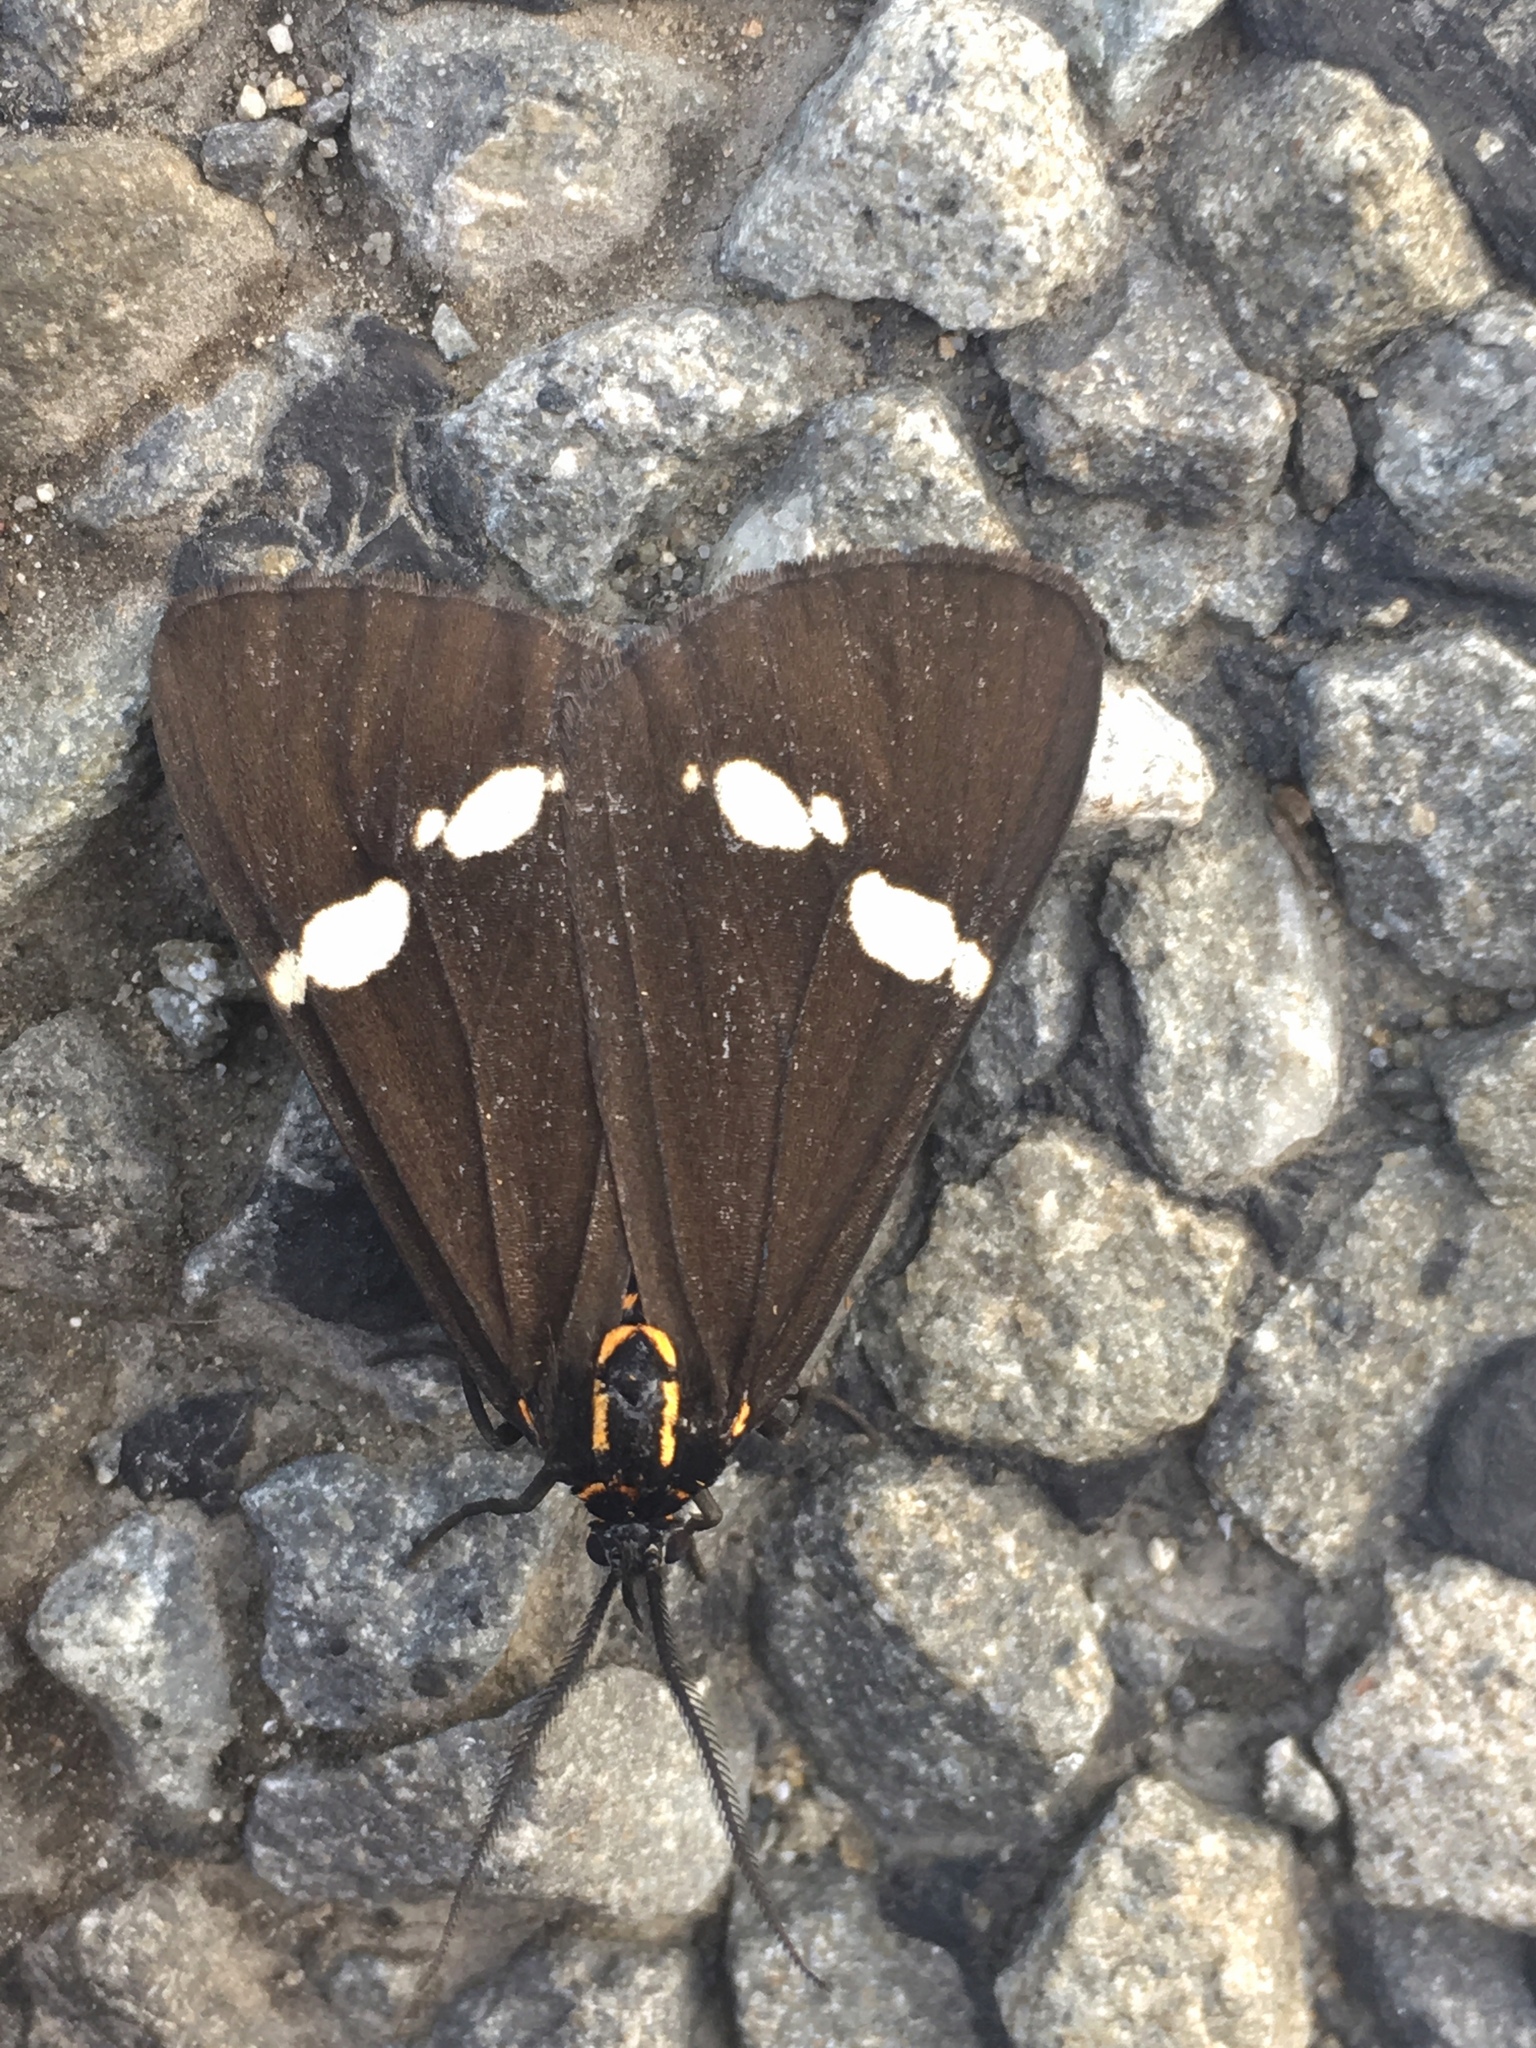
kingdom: Animalia
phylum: Arthropoda
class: Insecta
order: Lepidoptera
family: Erebidae
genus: Nyctemera
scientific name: Nyctemera annulatum
